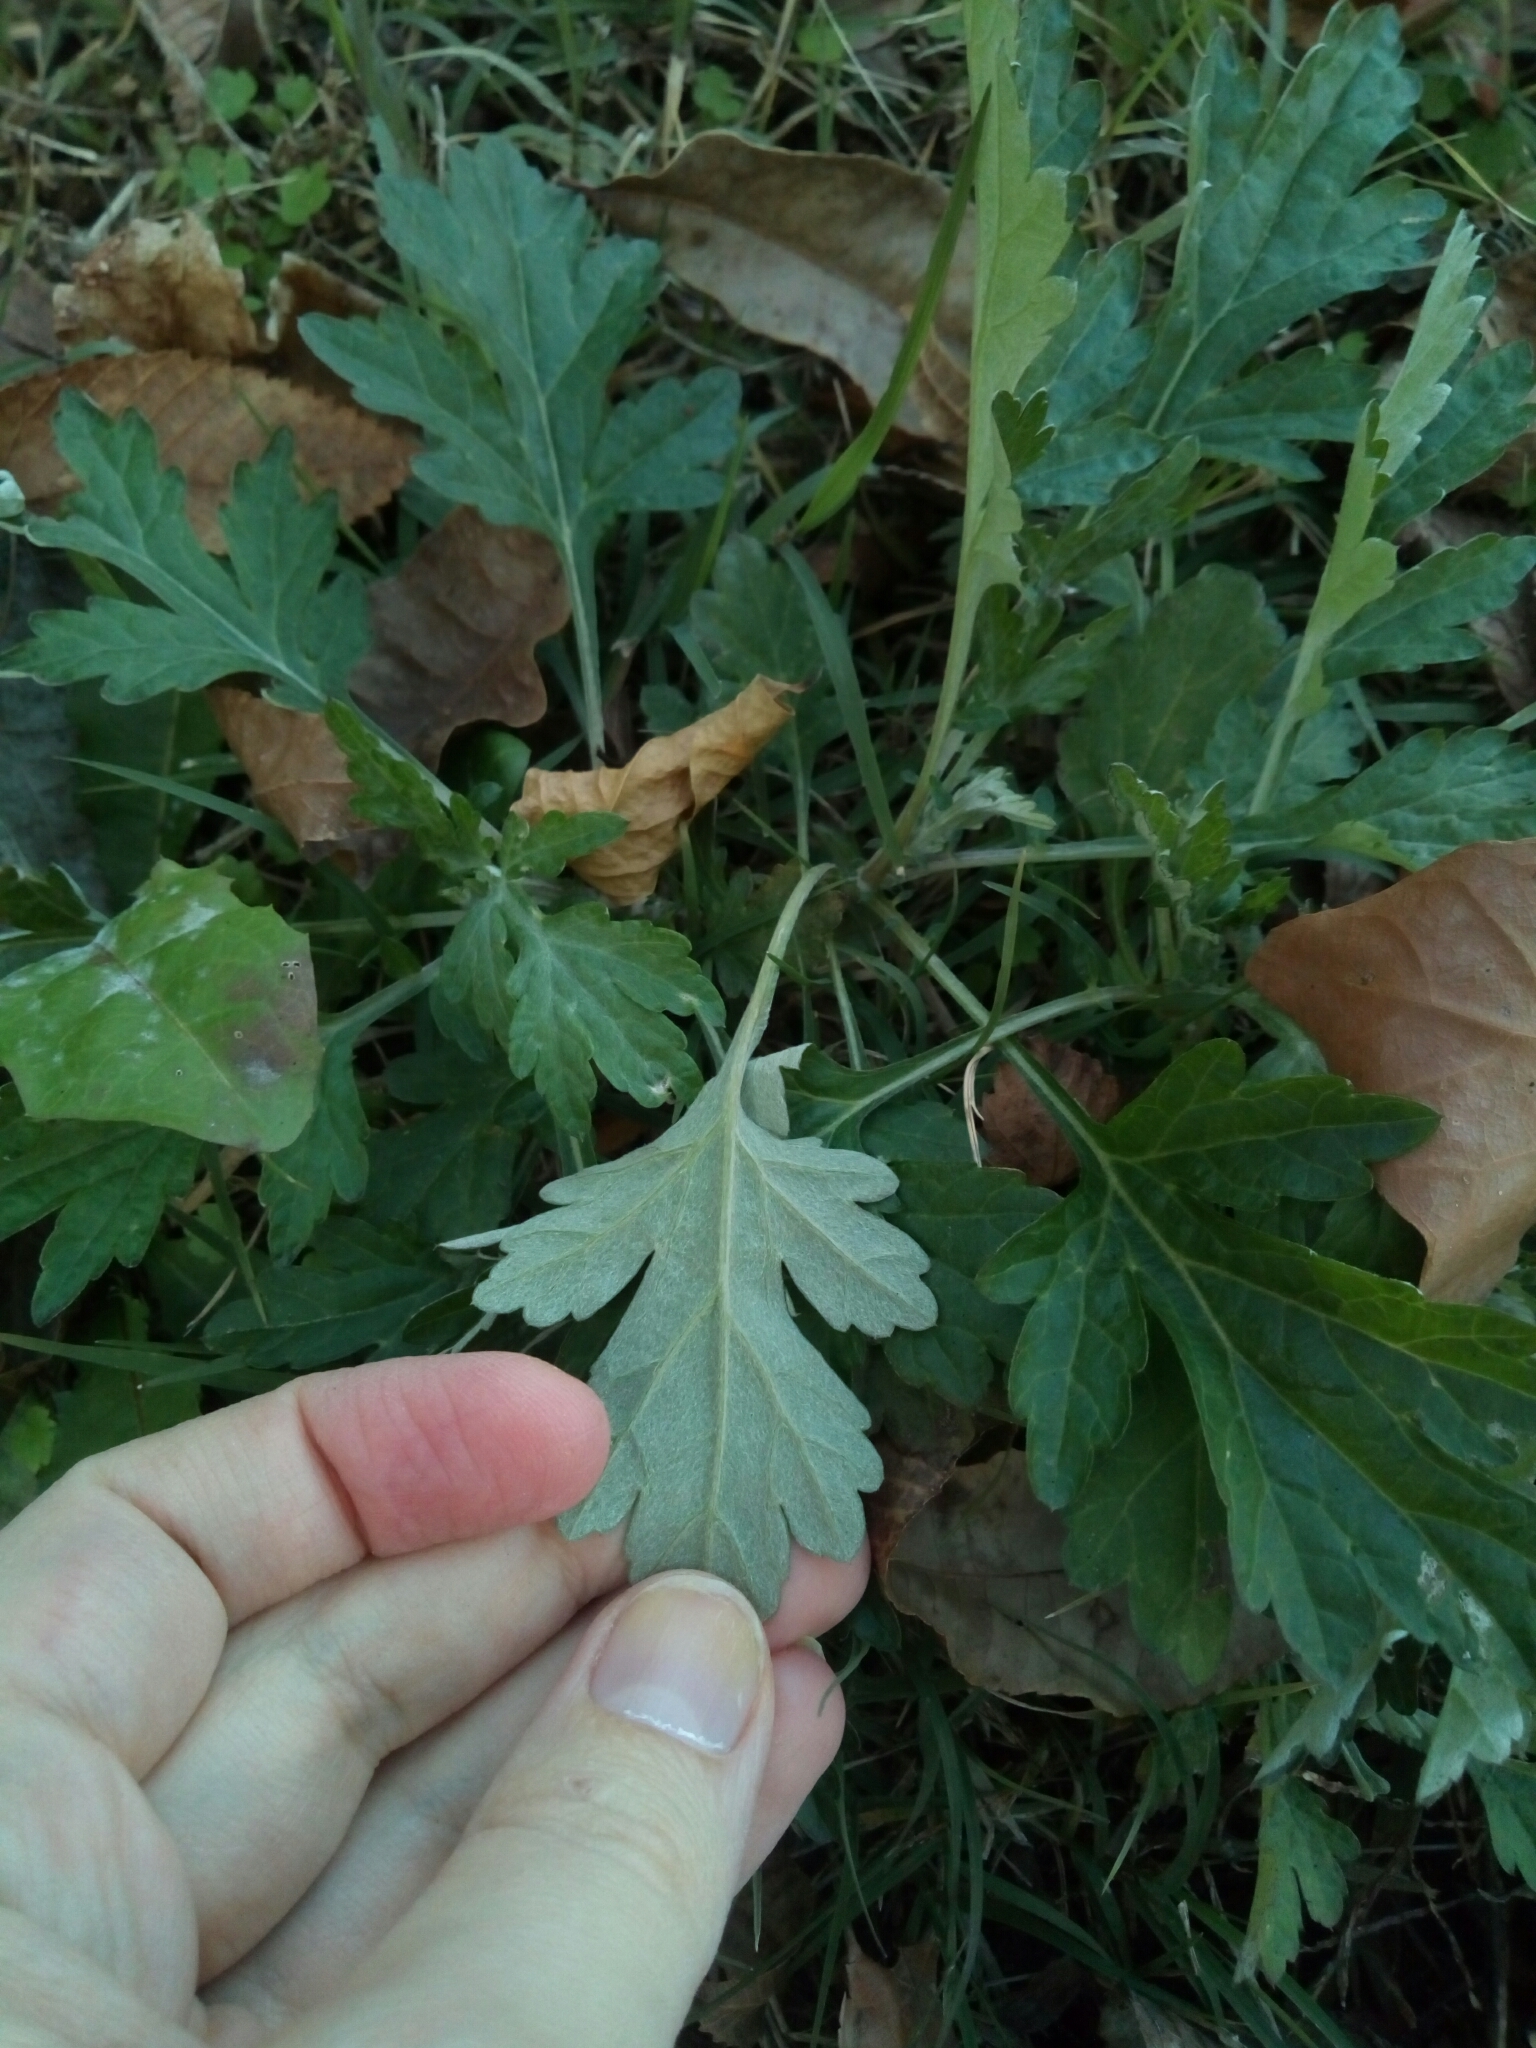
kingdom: Plantae
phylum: Tracheophyta
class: Magnoliopsida
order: Asterales
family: Asteraceae
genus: Artemisia
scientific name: Artemisia vulgaris
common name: Mugwort
